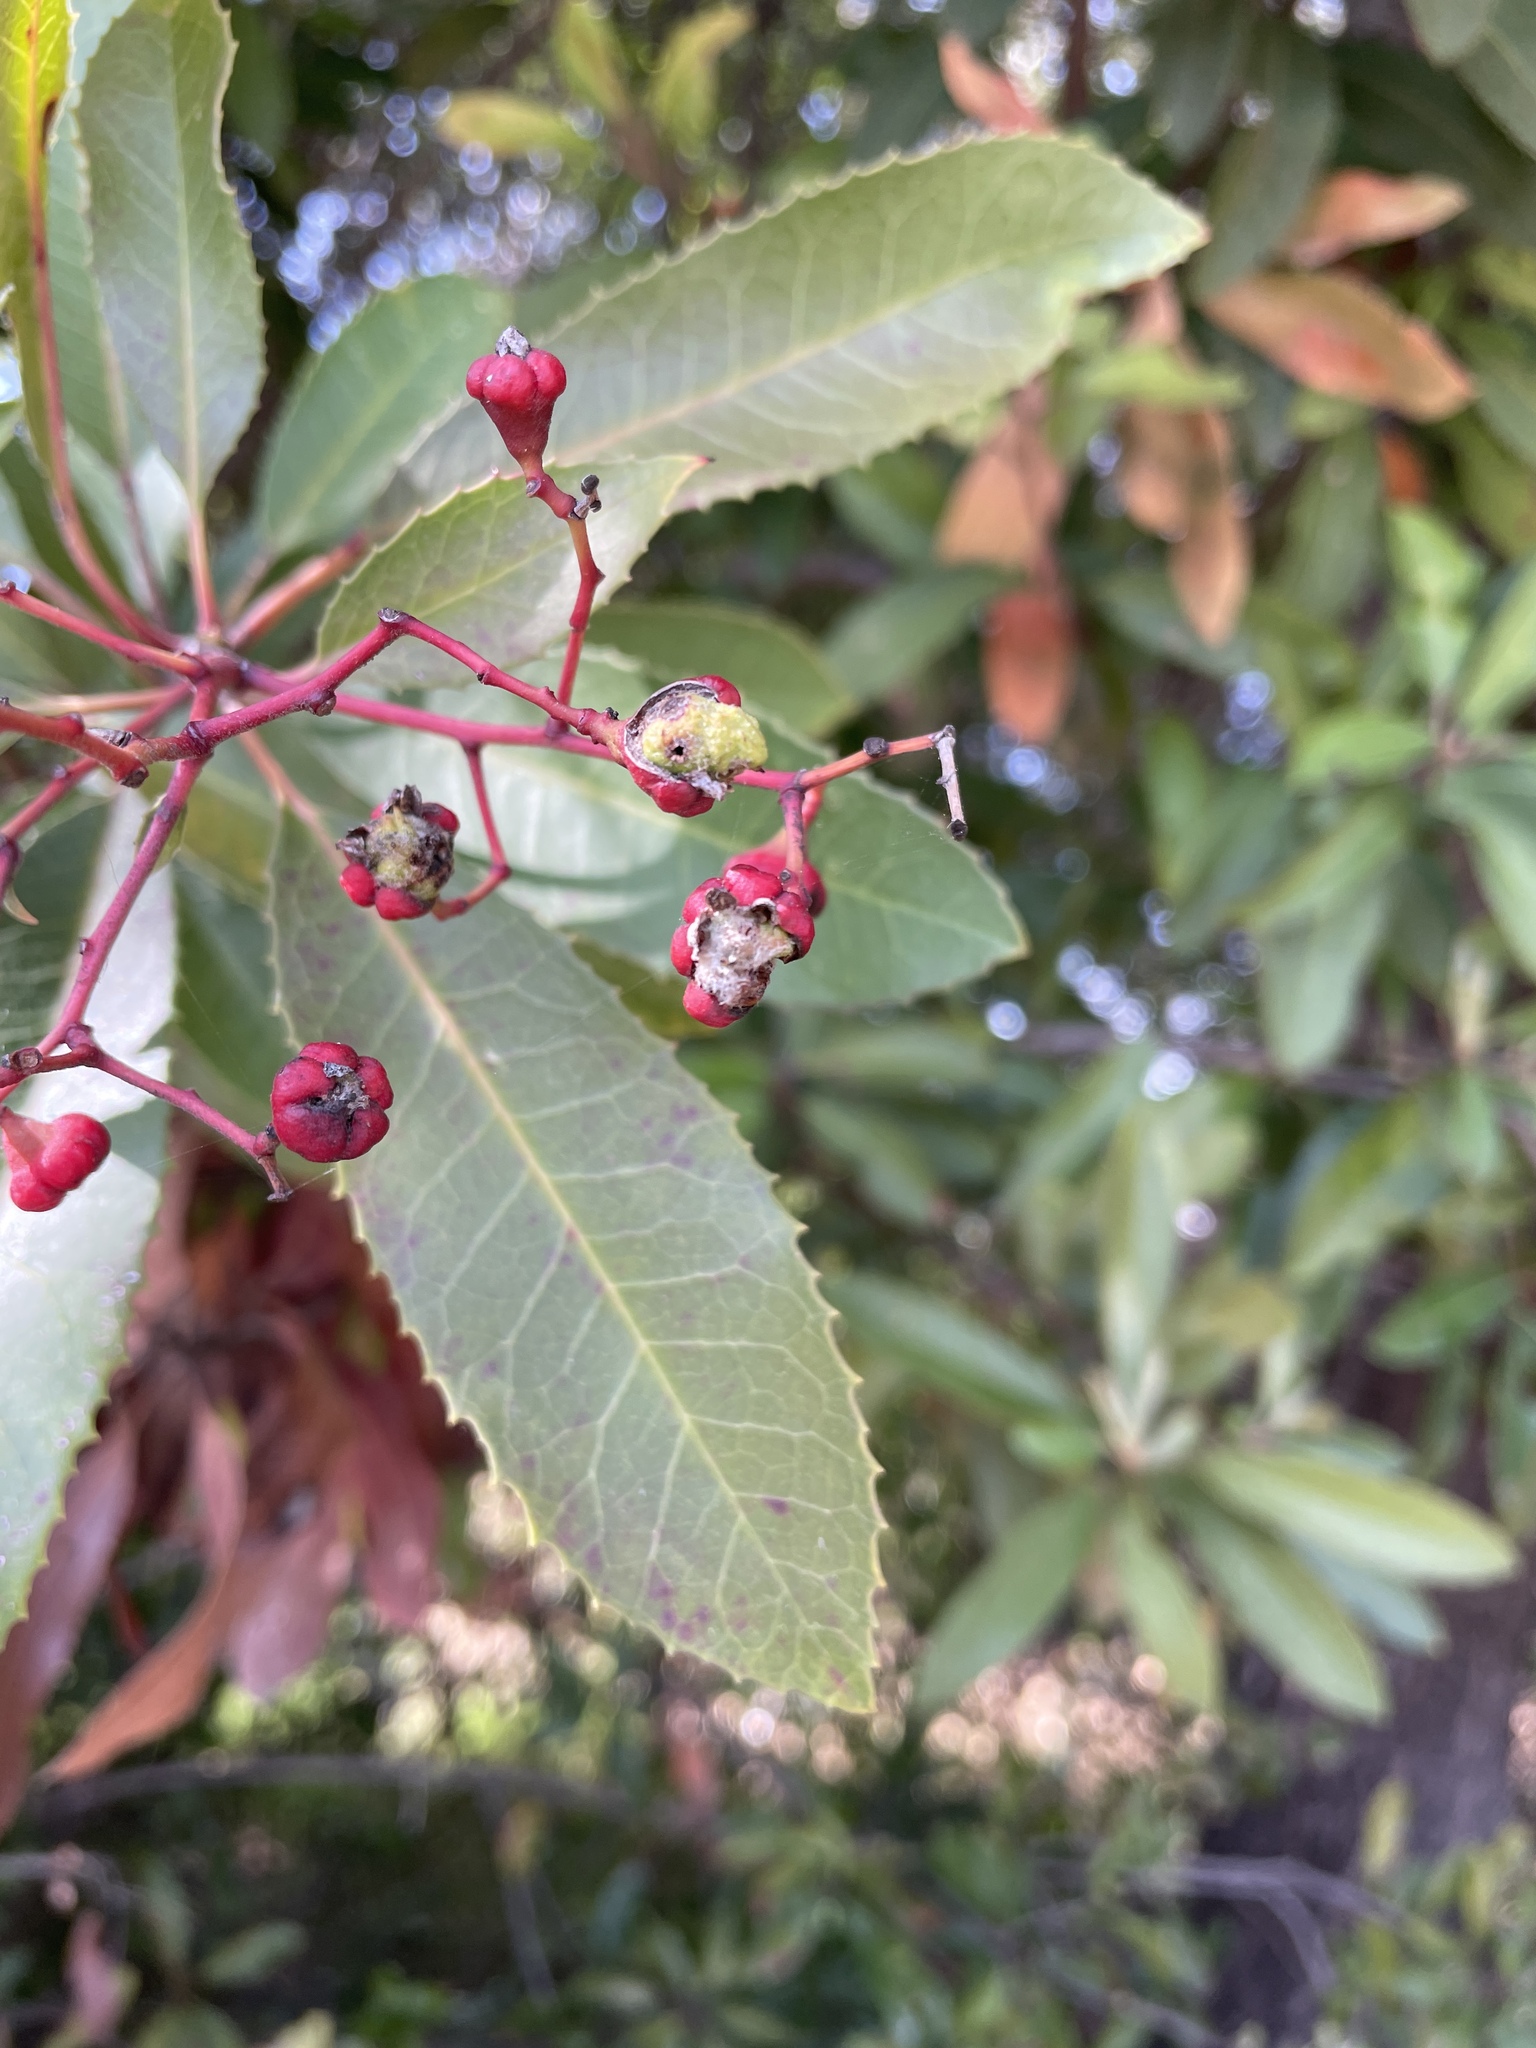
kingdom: Animalia
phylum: Arthropoda
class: Insecta
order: Diptera
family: Cecidomyiidae
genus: Asphondylia
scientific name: Asphondylia photiniae
